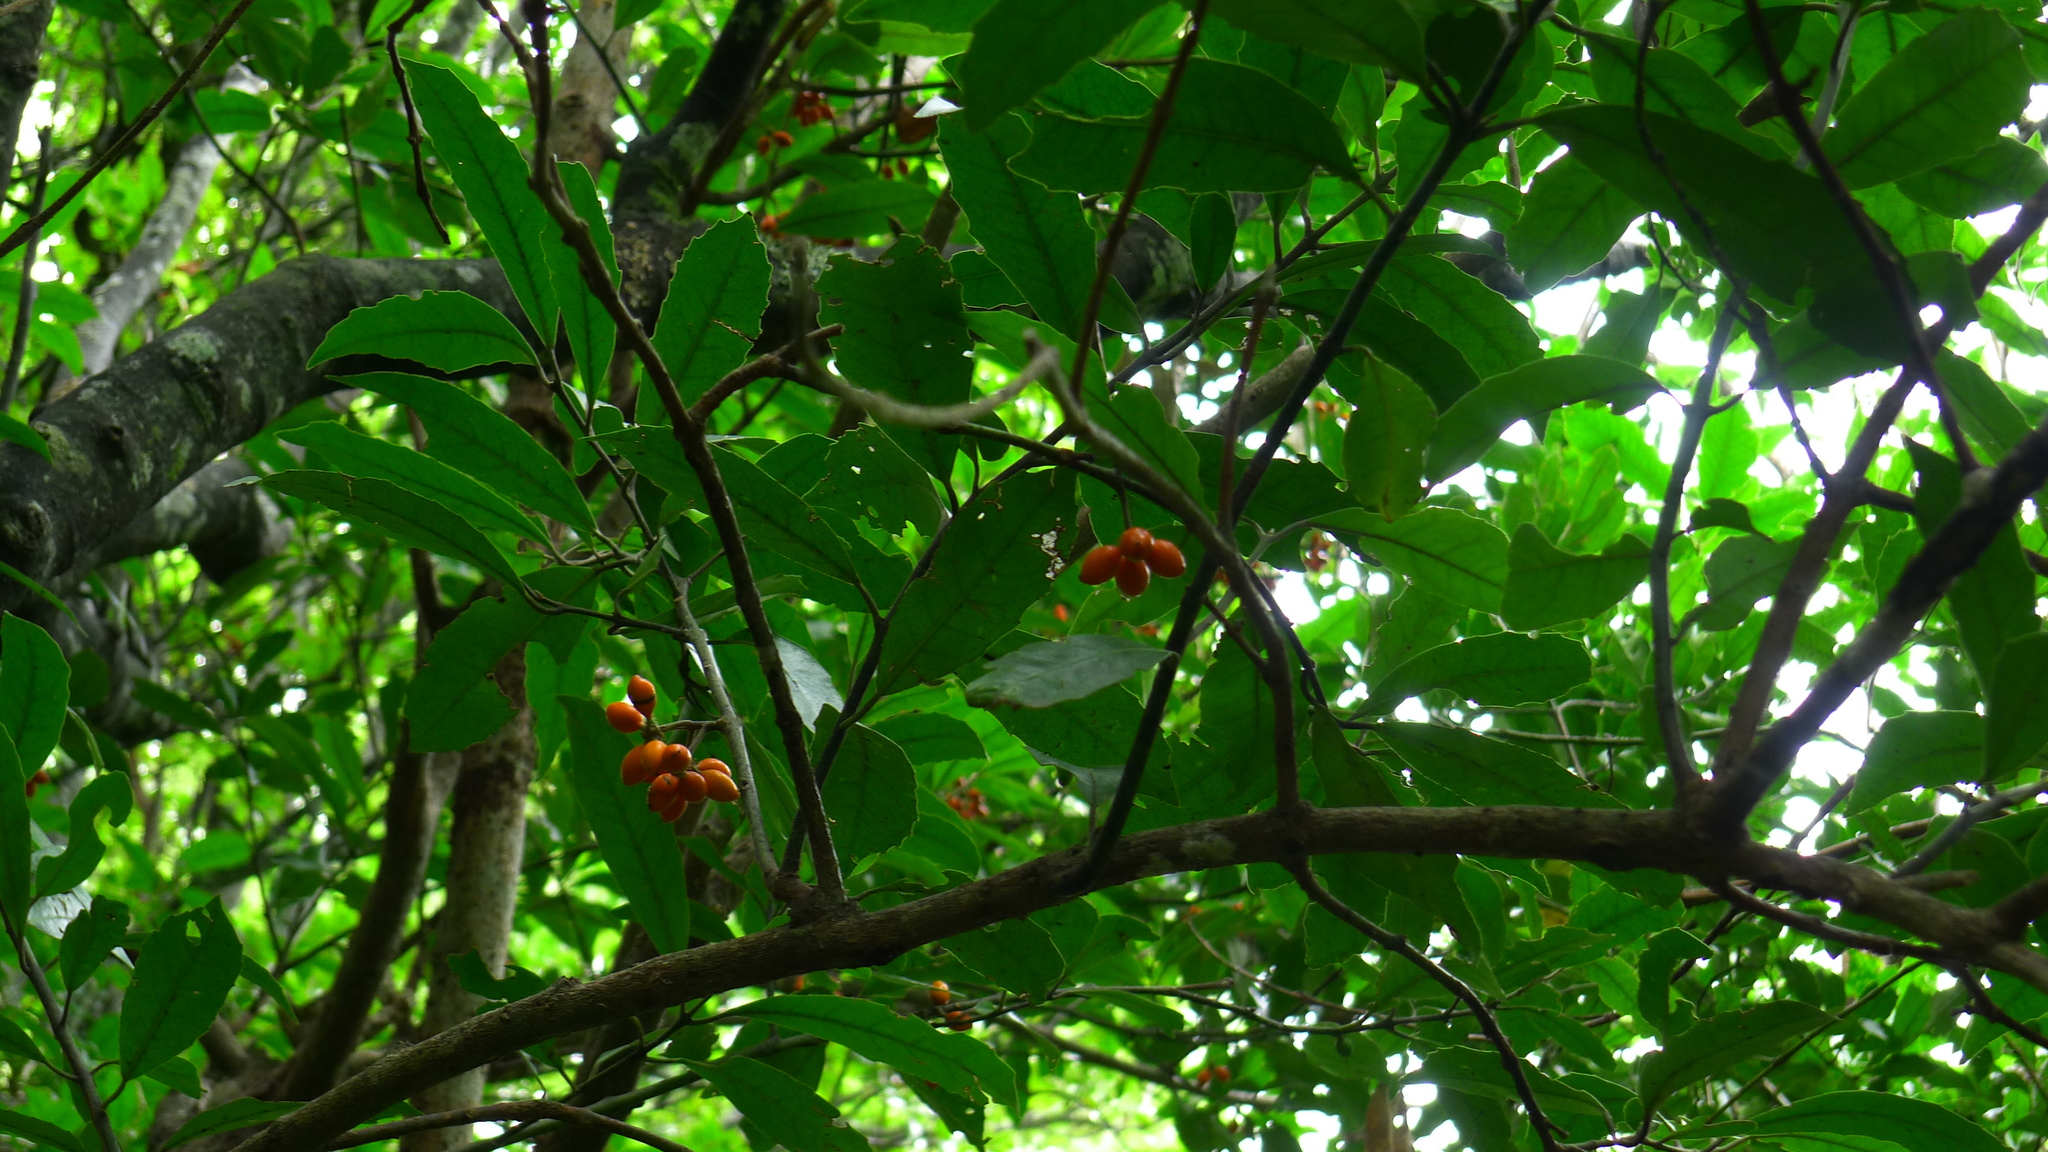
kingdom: Plantae
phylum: Tracheophyta
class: Magnoliopsida
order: Laurales
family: Monimiaceae
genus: Hedycarya
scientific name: Hedycarya arborea
